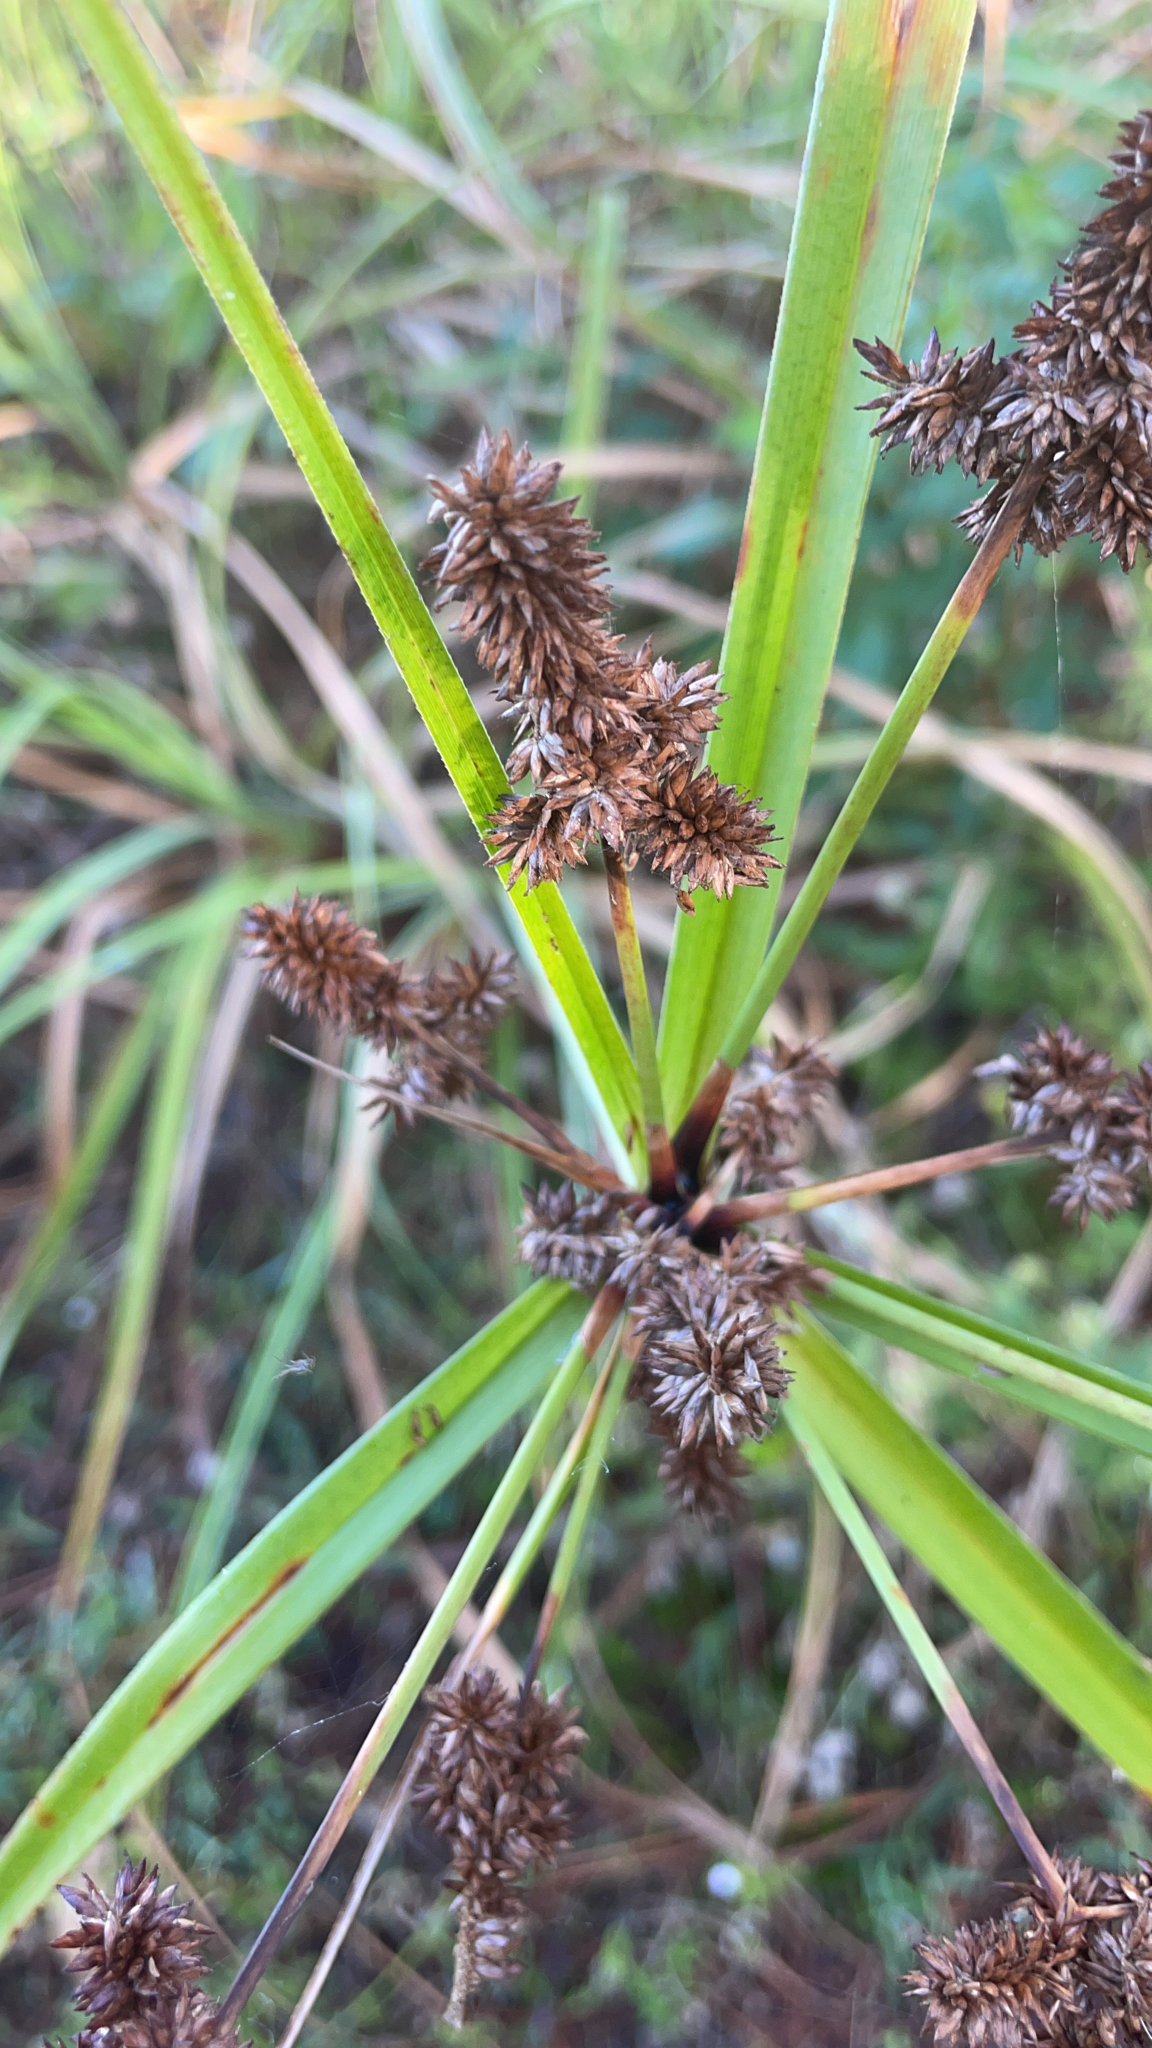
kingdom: Plantae
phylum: Tracheophyta
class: Liliopsida
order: Poales
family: Cyperaceae
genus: Cyperus
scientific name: Cyperus ligularis
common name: Swamp flat sedge
